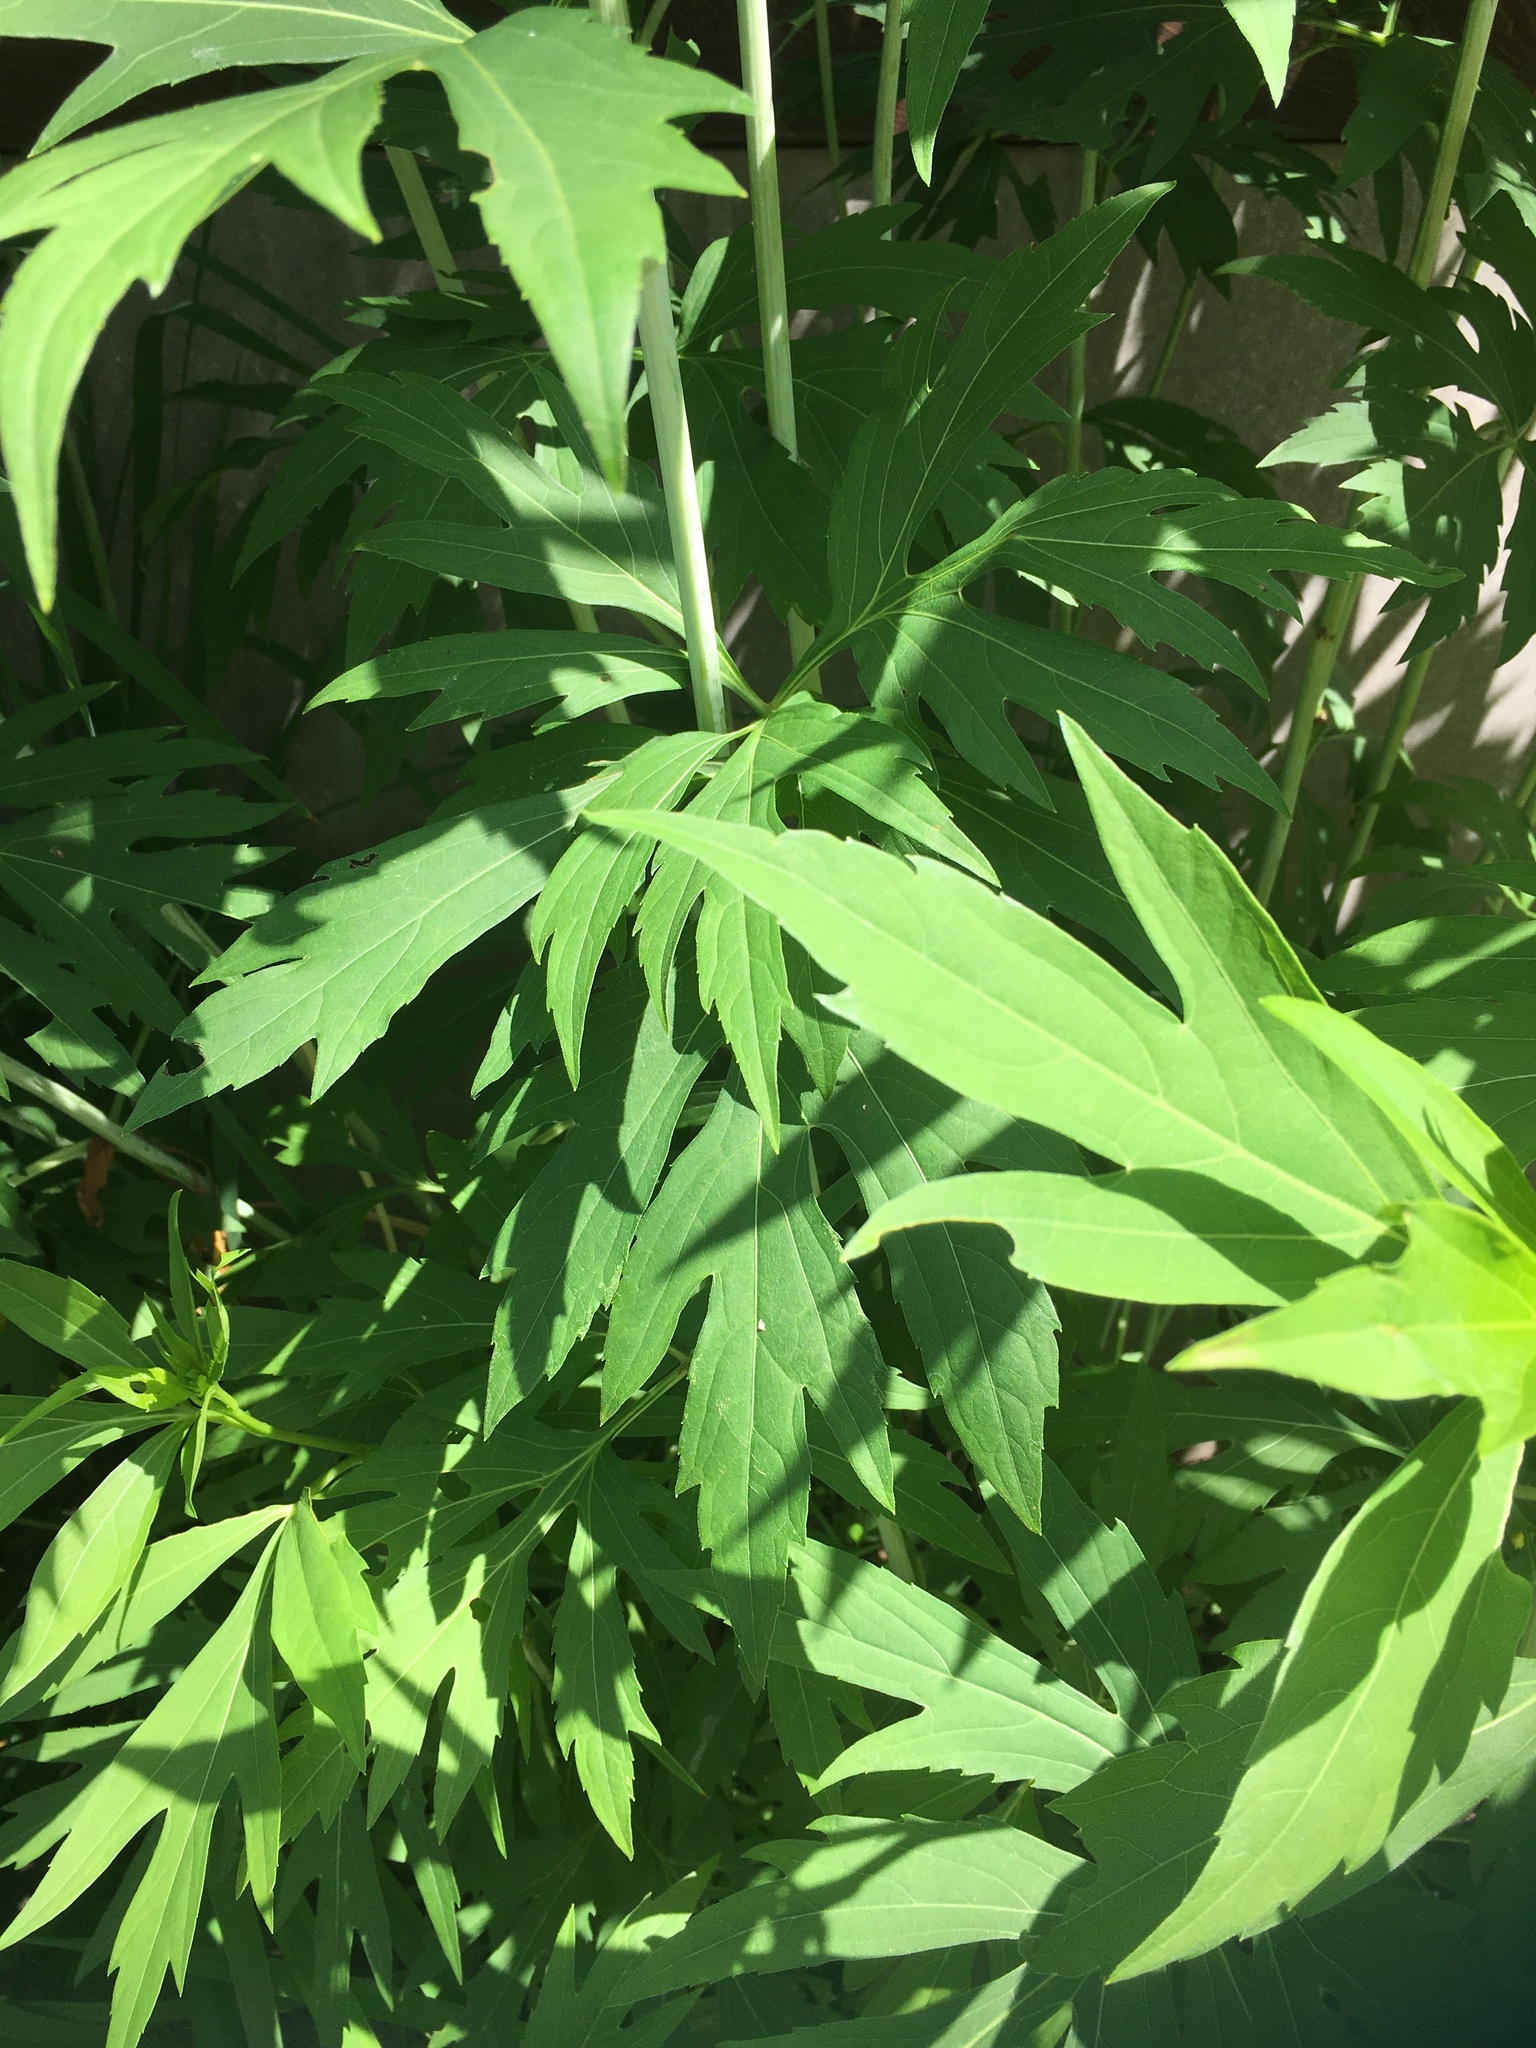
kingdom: Plantae
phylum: Tracheophyta
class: Magnoliopsida
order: Asterales
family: Asteraceae
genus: Rudbeckia
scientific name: Rudbeckia laciniata
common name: Coneflower
